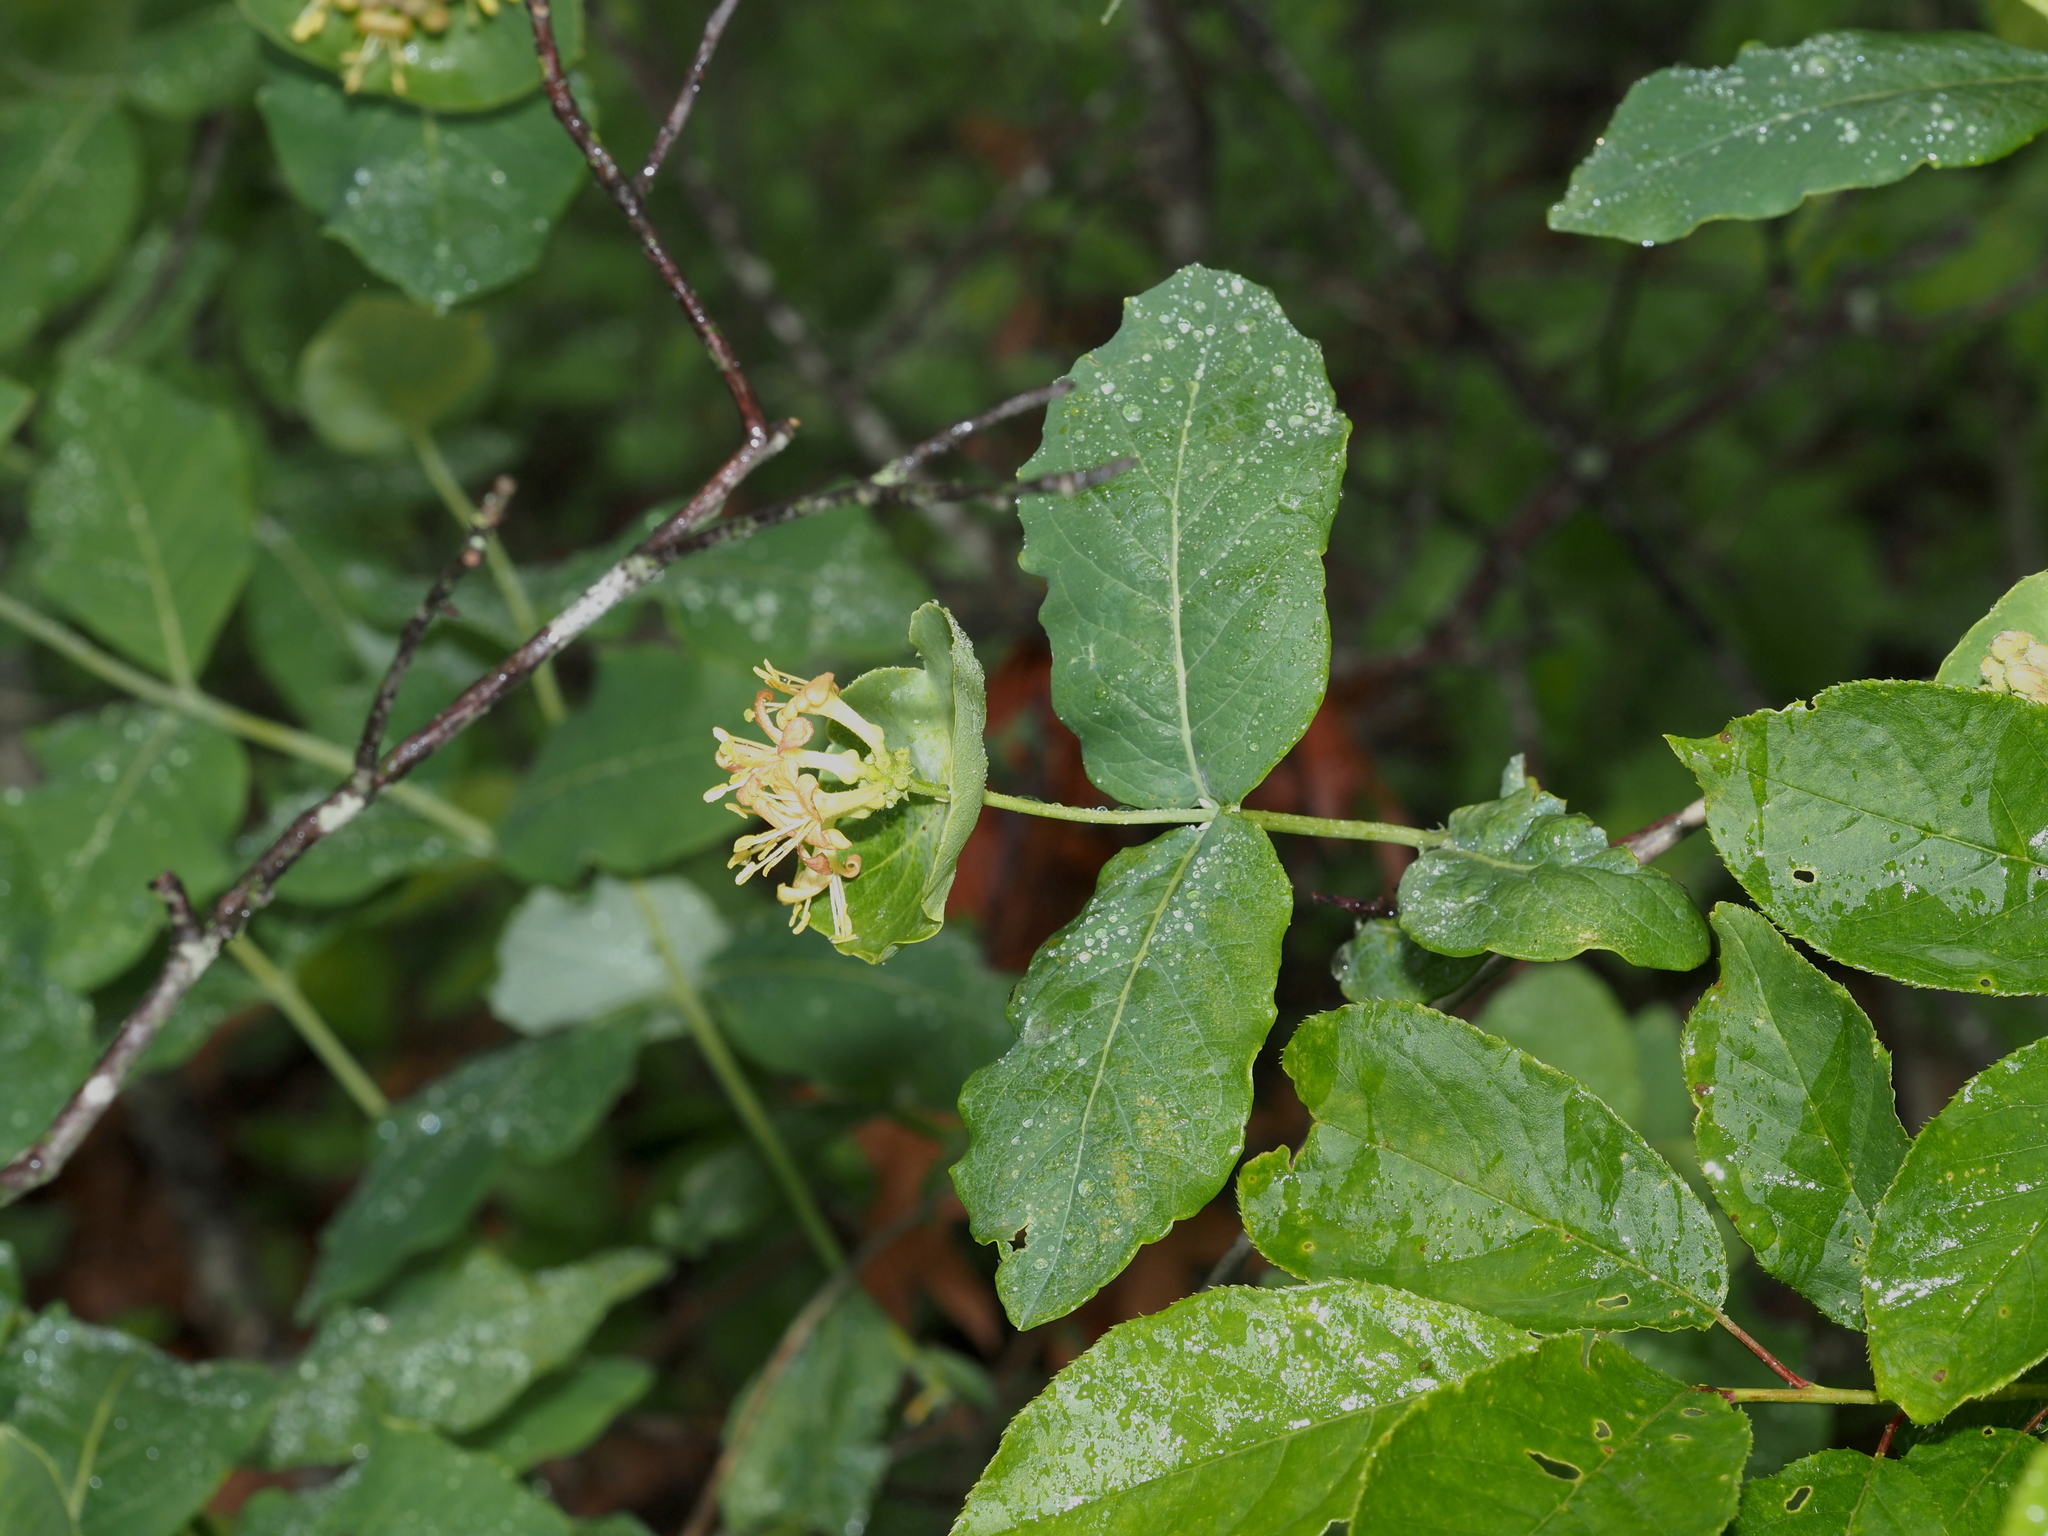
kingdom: Plantae
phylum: Tracheophyta
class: Magnoliopsida
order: Dipsacales
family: Caprifoliaceae
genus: Lonicera
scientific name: Lonicera dioica
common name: Limber honeysuckle
